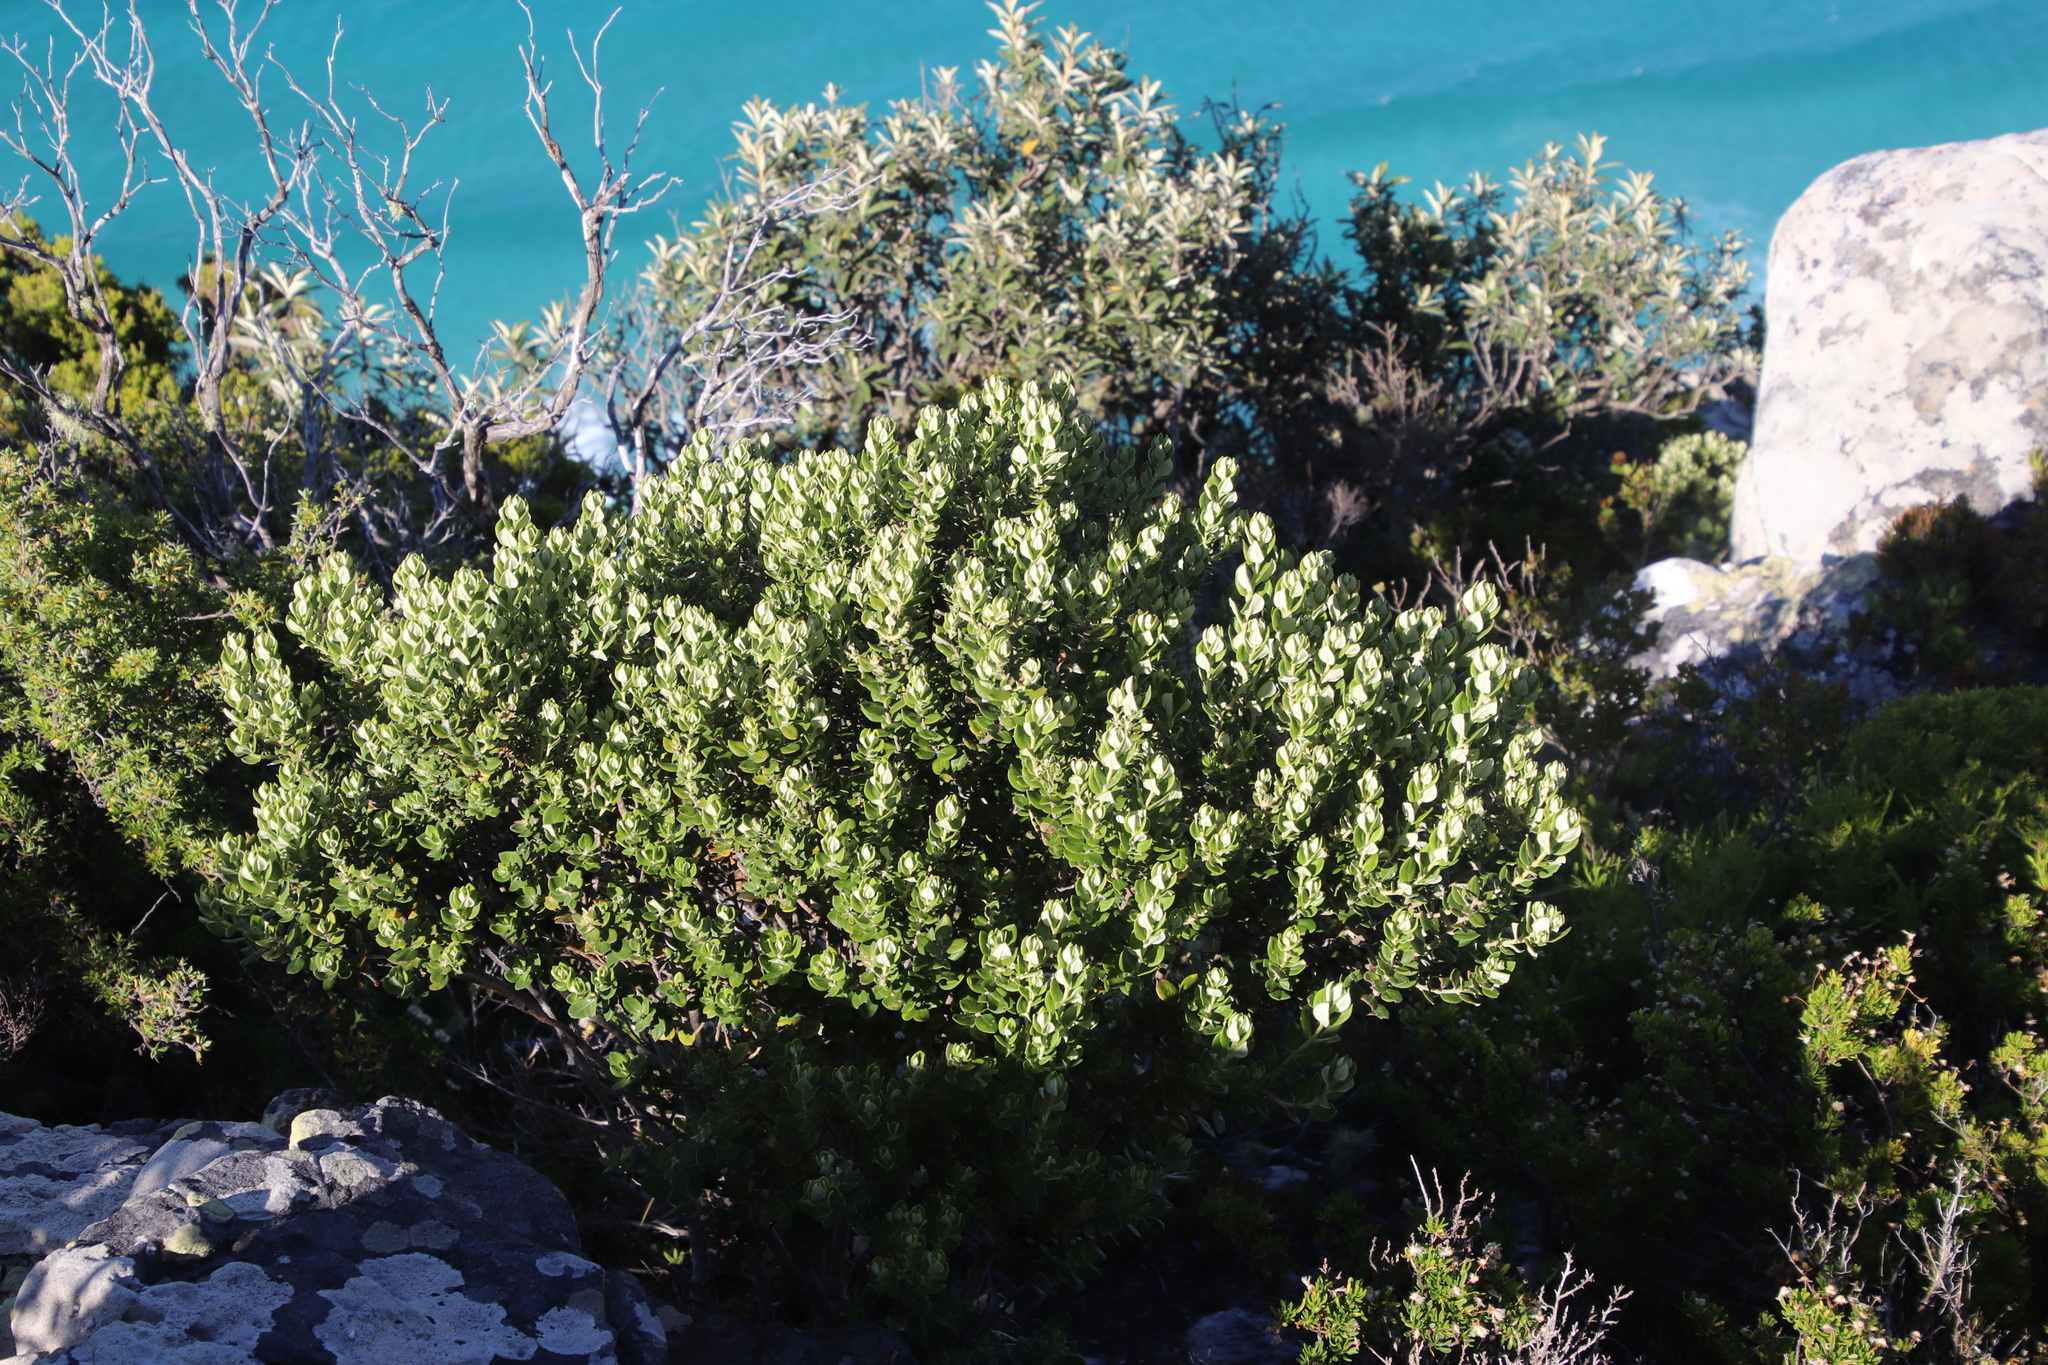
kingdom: Plantae
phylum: Tracheophyta
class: Magnoliopsida
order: Rosales
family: Rhamnaceae
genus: Phylica
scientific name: Phylica buxifolia
